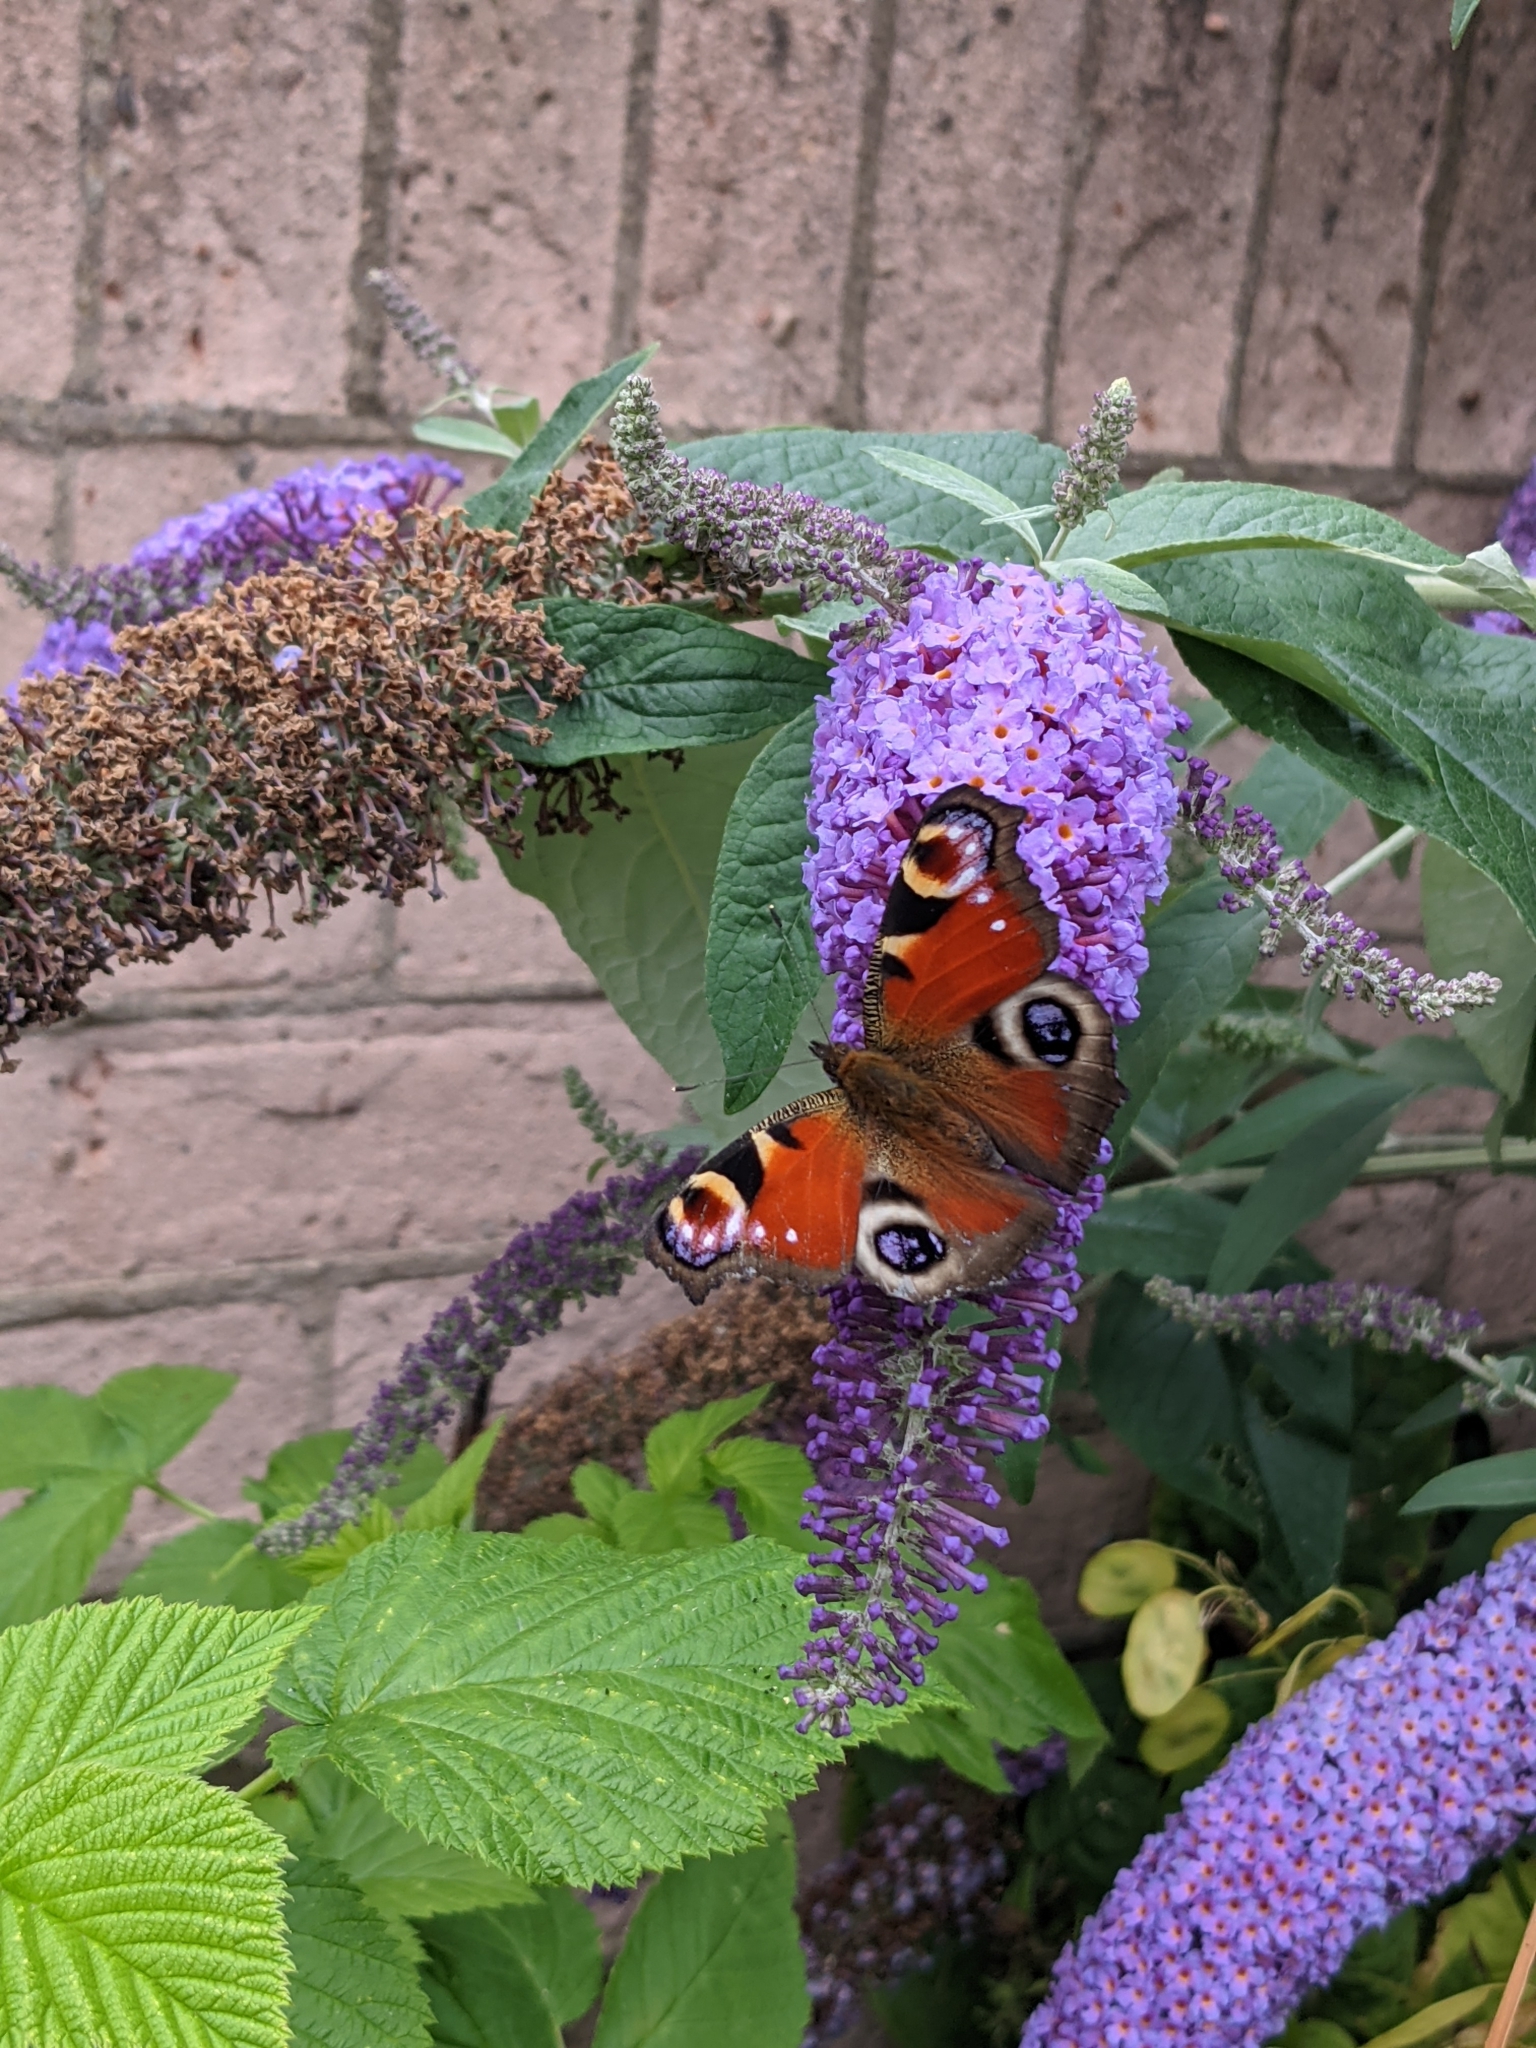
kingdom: Animalia
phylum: Arthropoda
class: Insecta
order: Lepidoptera
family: Nymphalidae
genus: Aglais
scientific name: Aglais io
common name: Peacock
